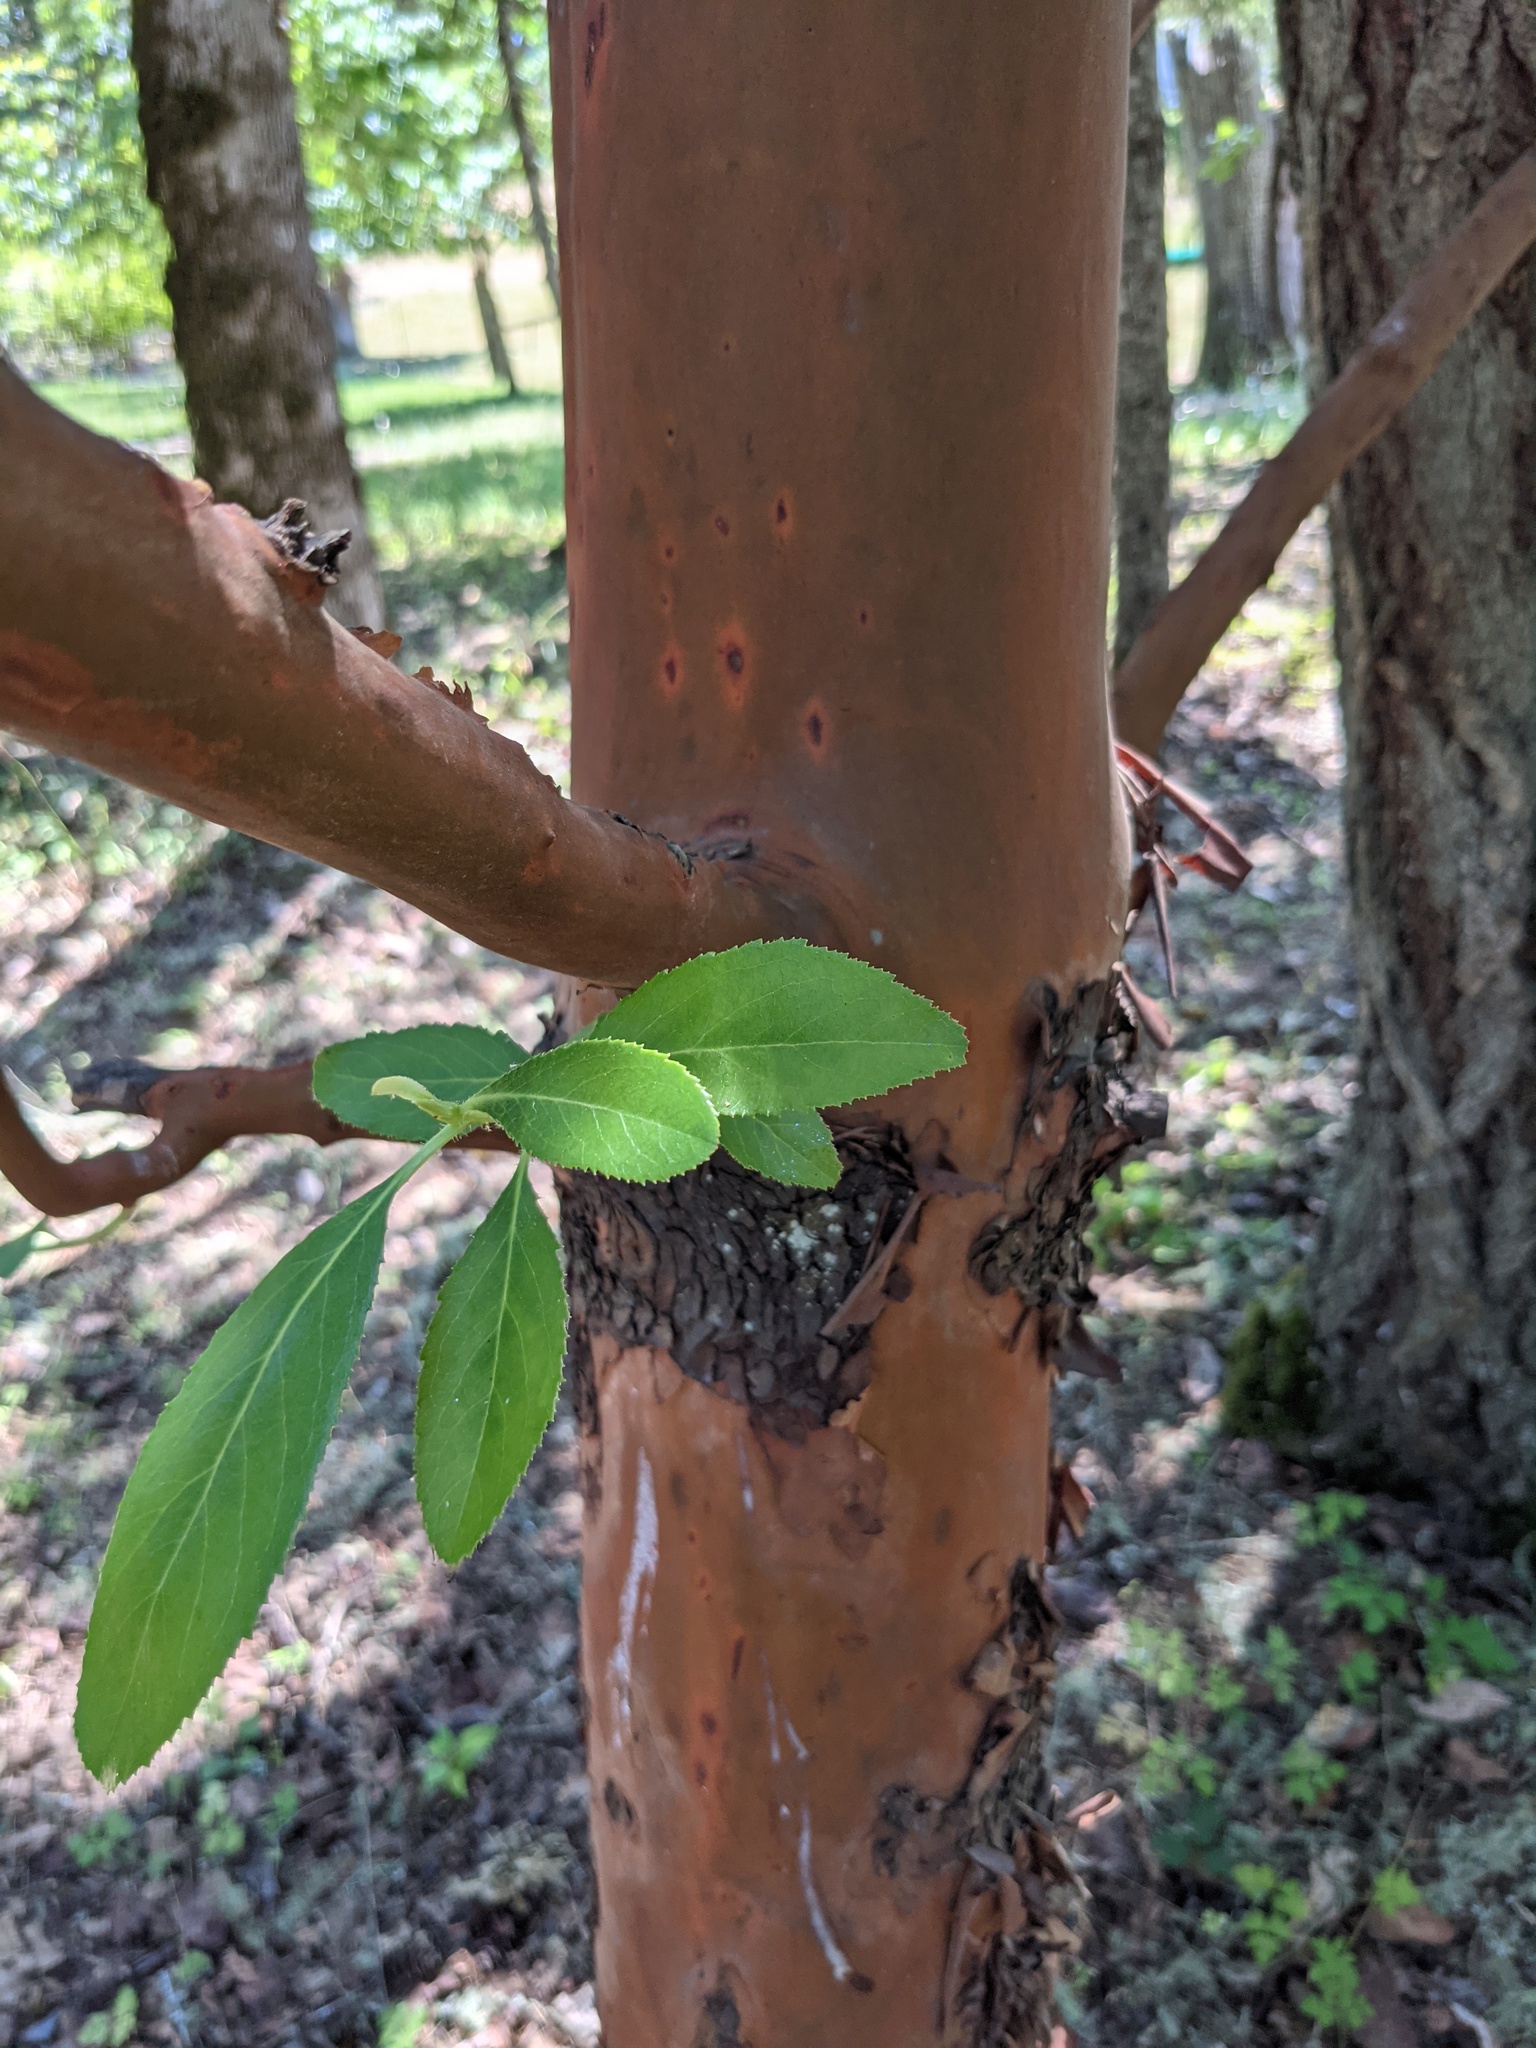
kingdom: Plantae
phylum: Tracheophyta
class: Magnoliopsida
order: Ericales
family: Ericaceae
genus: Arbutus
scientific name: Arbutus menziesii
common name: Pacific madrone
